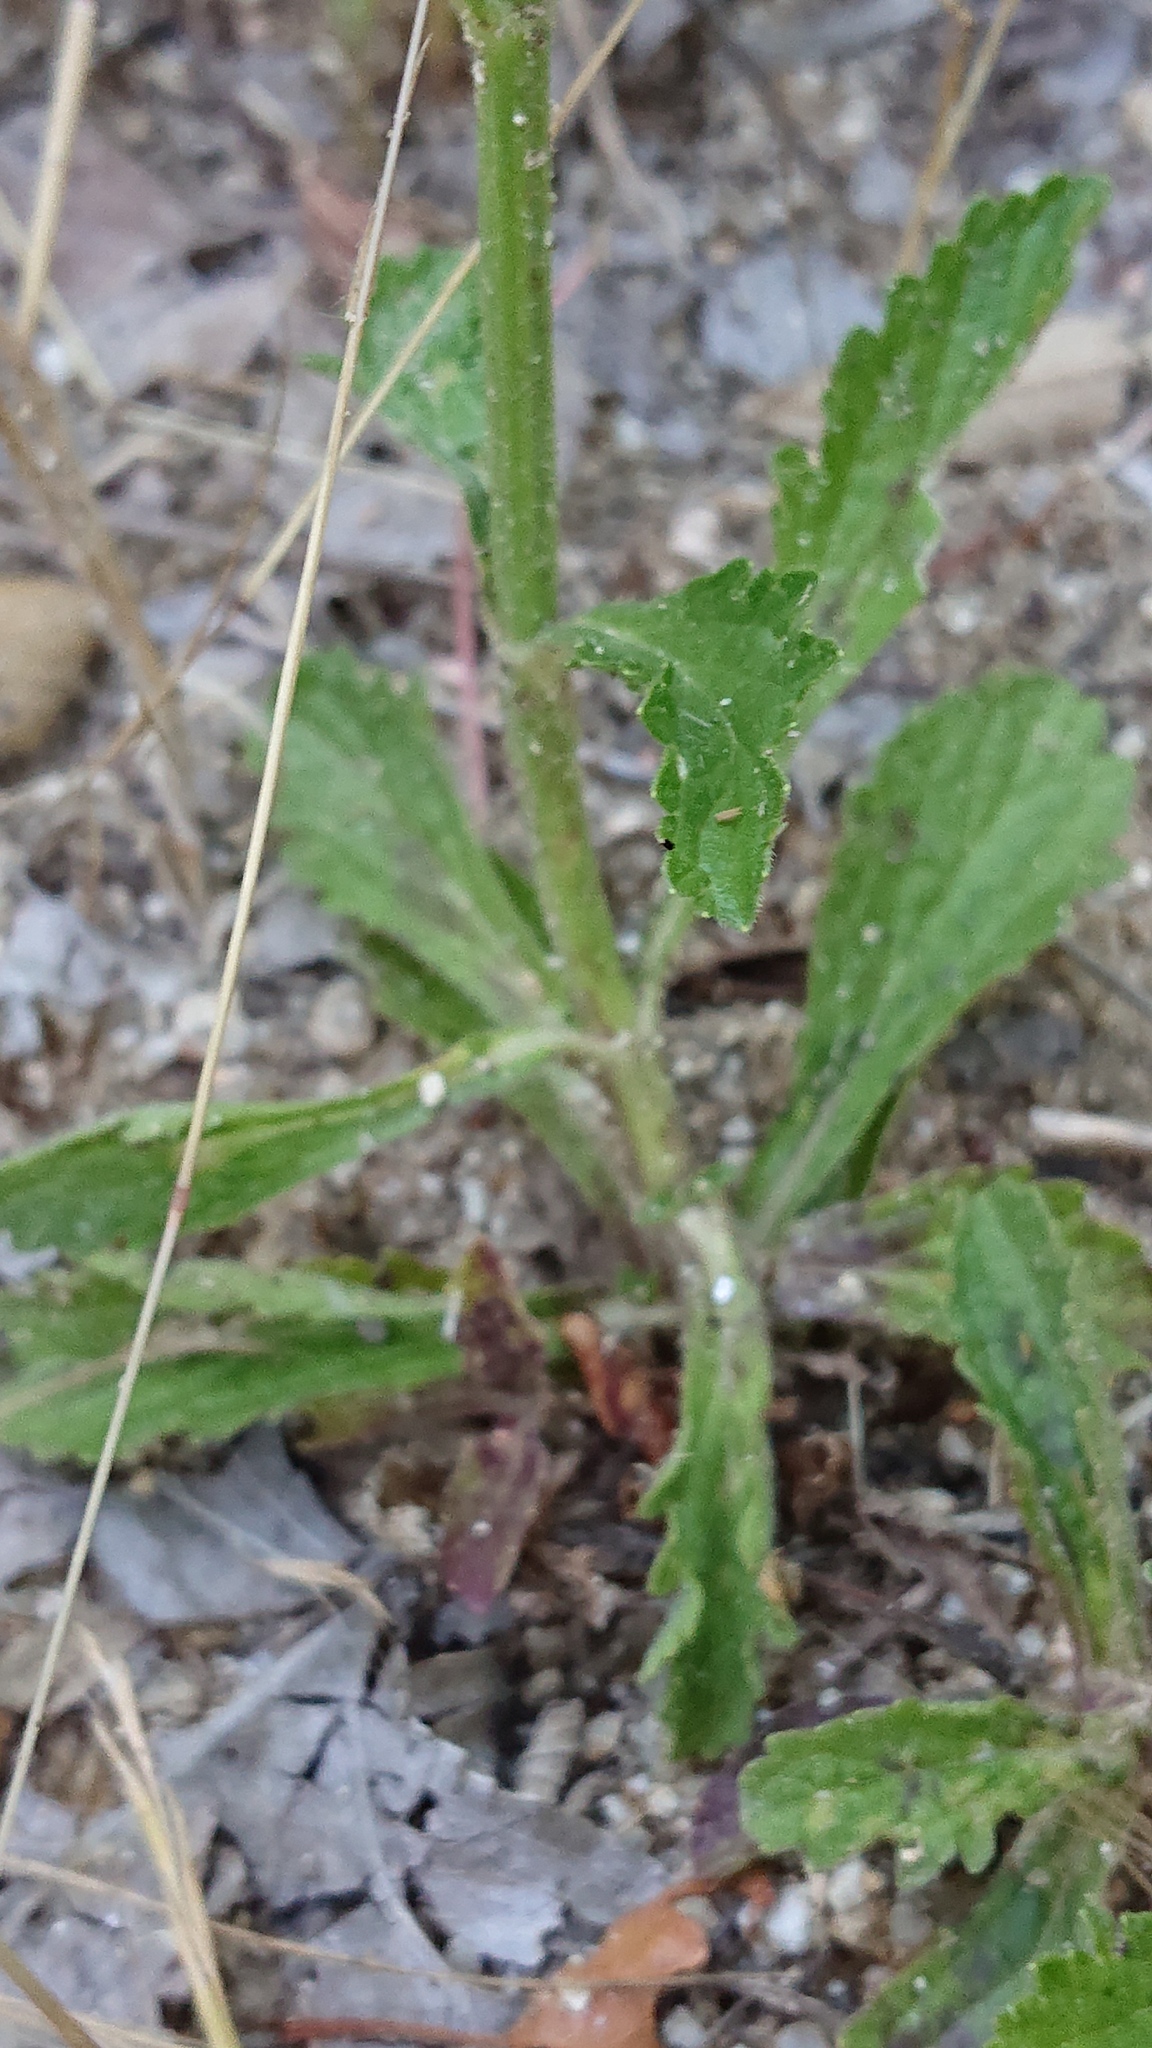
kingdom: Plantae
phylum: Tracheophyta
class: Magnoliopsida
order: Lamiales
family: Verbenaceae
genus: Verbena
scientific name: Verbena officinalis
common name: Vervain
